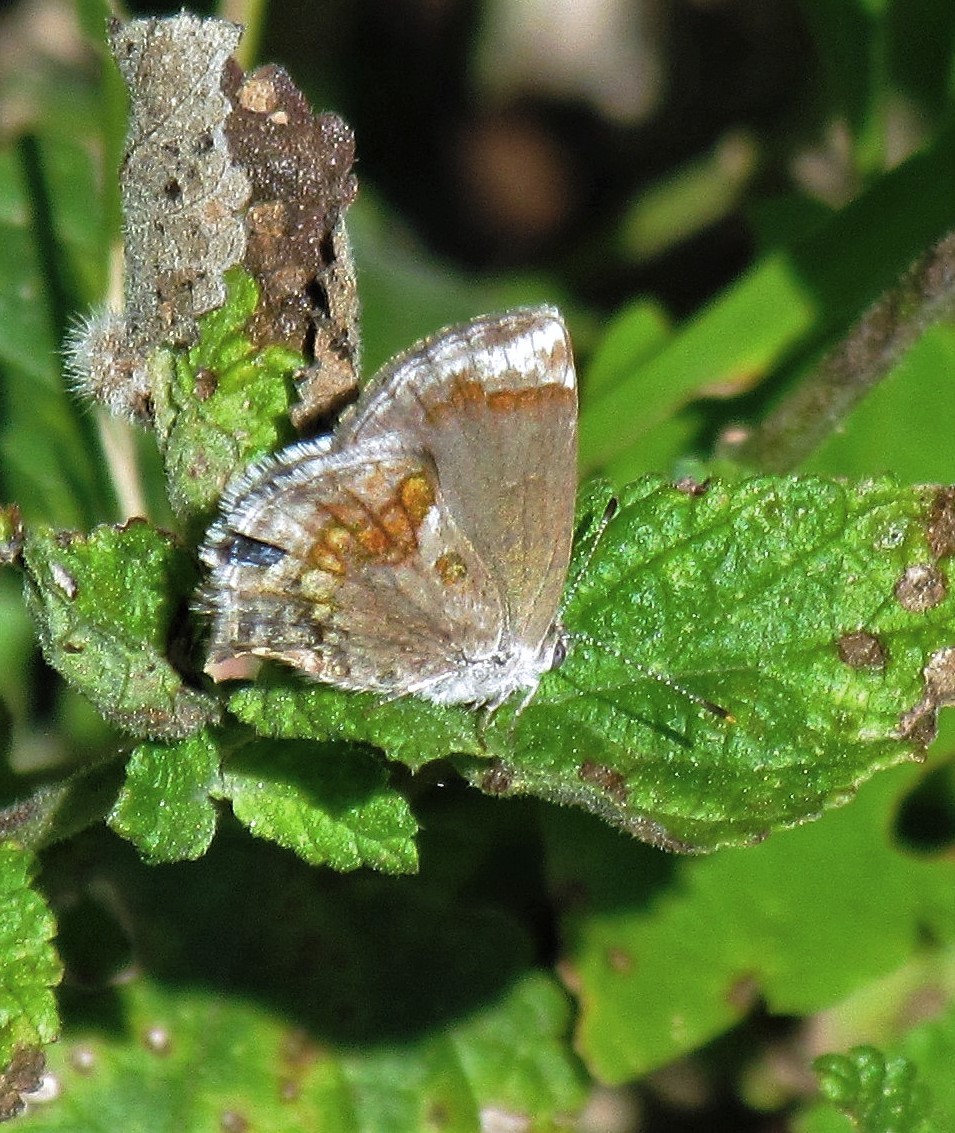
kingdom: Animalia
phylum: Arthropoda
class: Insecta
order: Lepidoptera
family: Lycaenidae
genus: Strymon
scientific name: Strymon bazochii
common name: Lantana scrub-hairstreak
